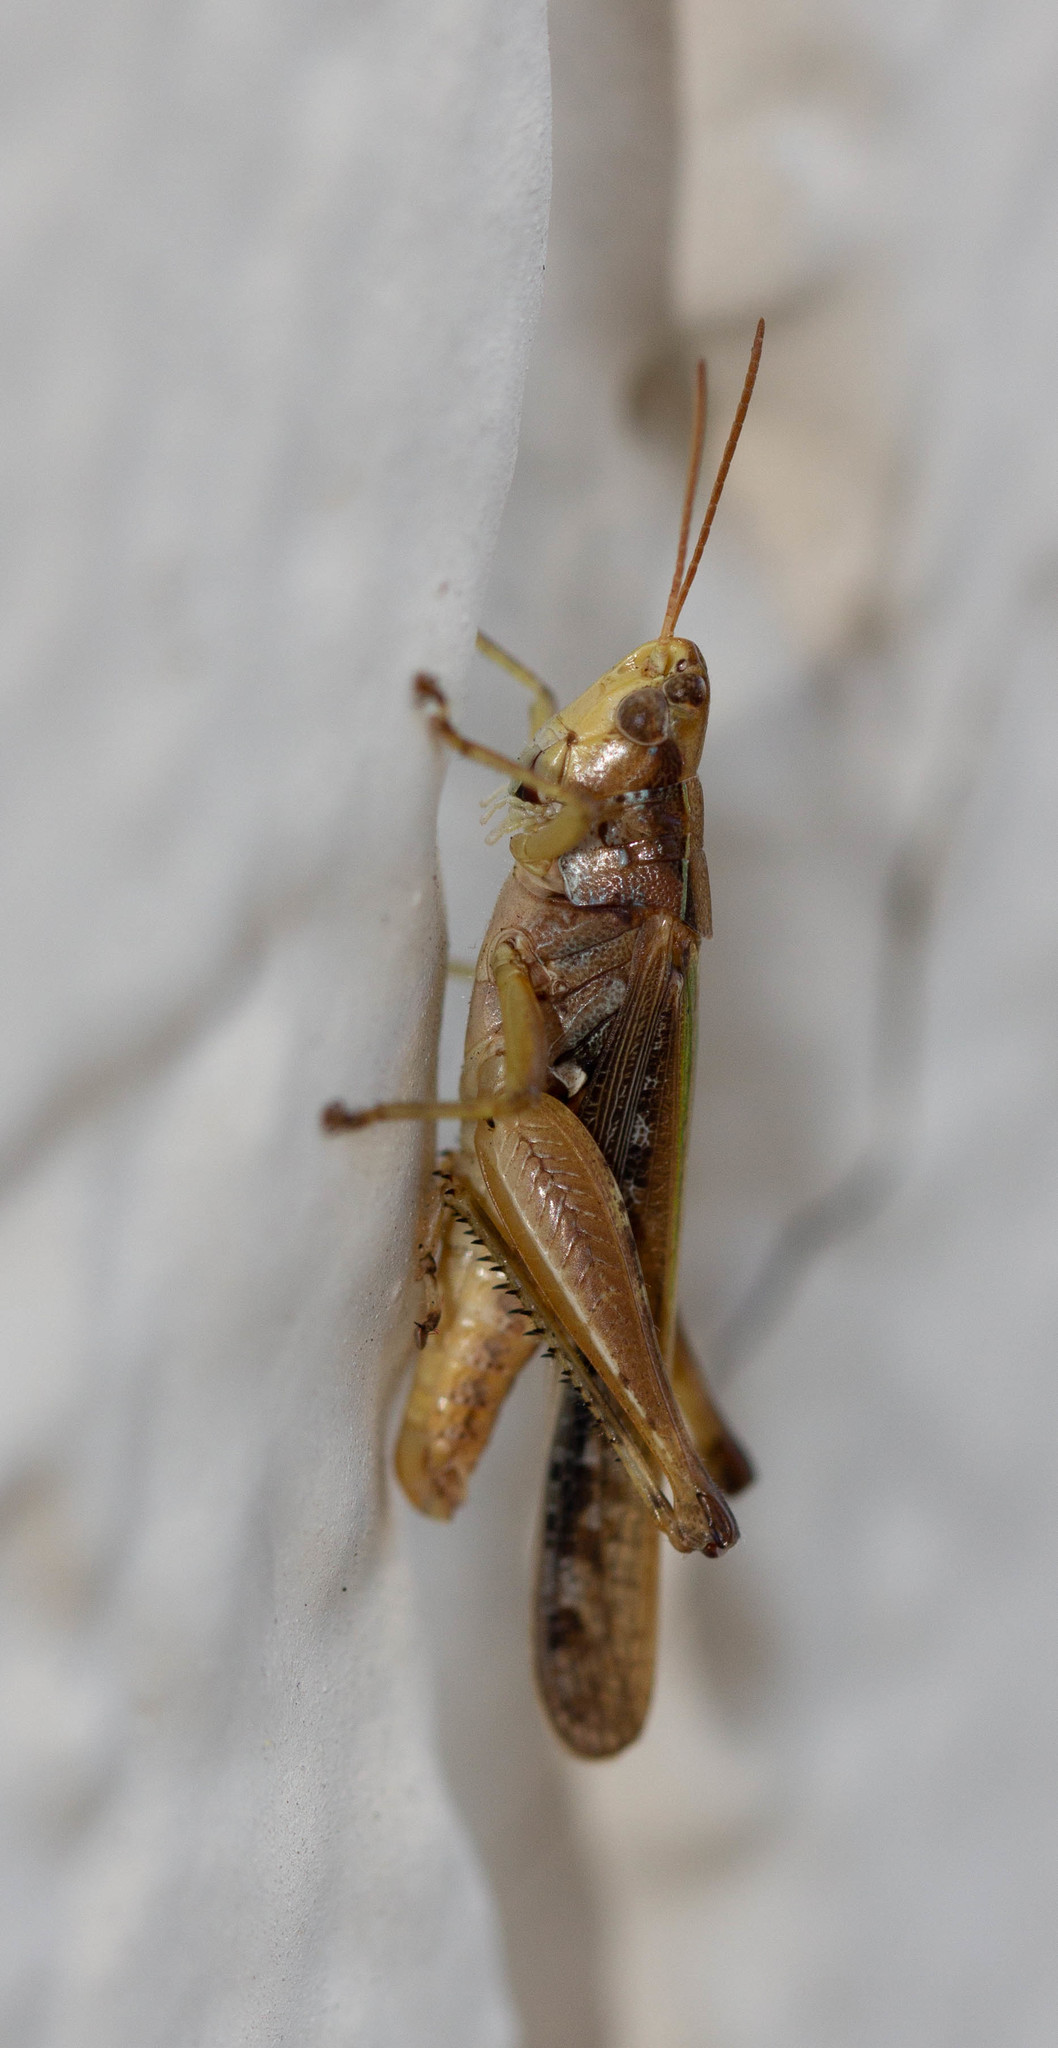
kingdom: Animalia
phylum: Arthropoda
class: Insecta
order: Orthoptera
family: Acrididae
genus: Orphulella
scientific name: Orphulella pelidna
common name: Spotted-wing grasshopper
